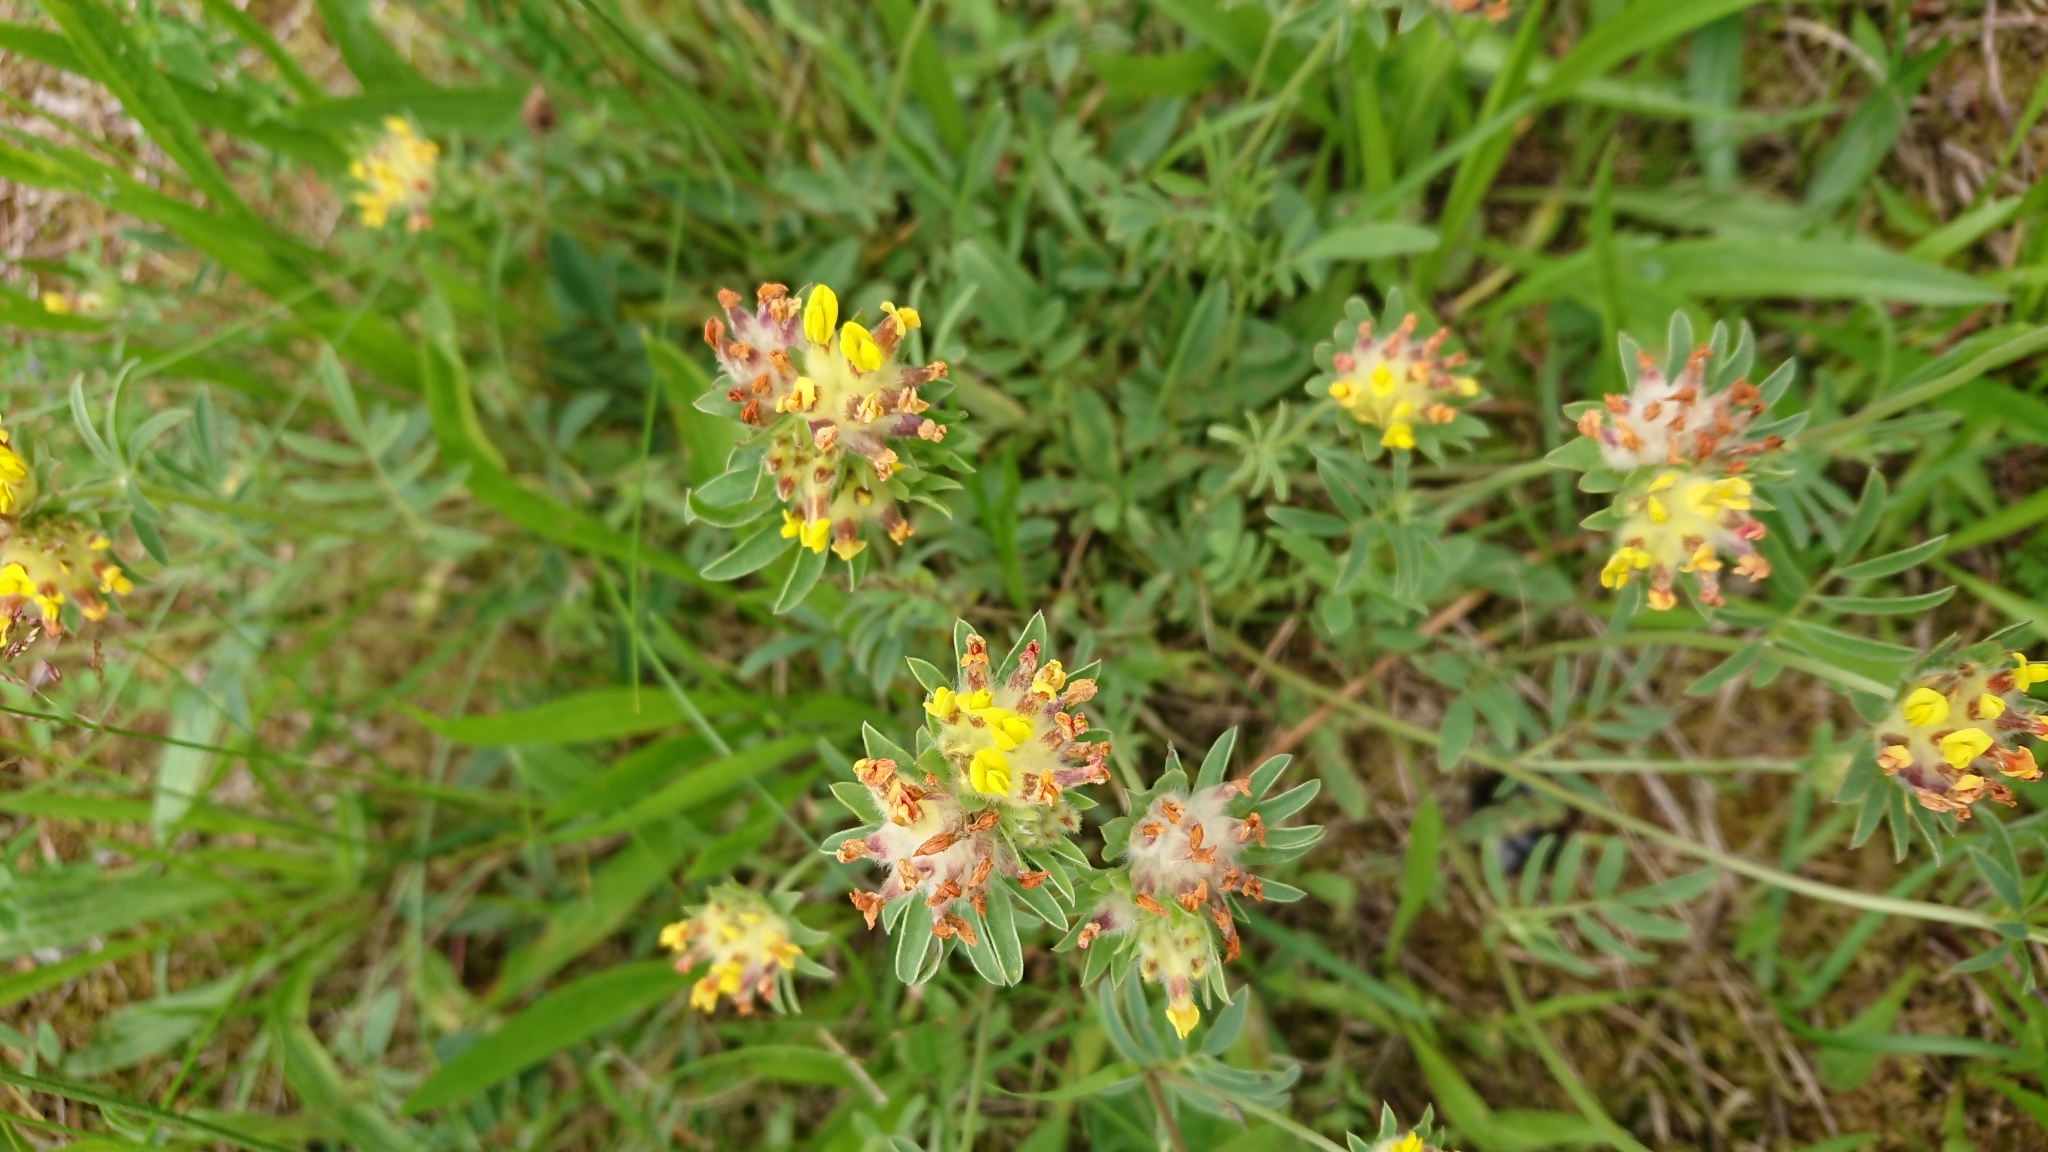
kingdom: Plantae
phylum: Tracheophyta
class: Magnoliopsida
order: Fabales
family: Fabaceae
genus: Anthyllis
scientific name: Anthyllis vulneraria
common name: Kidney vetch
